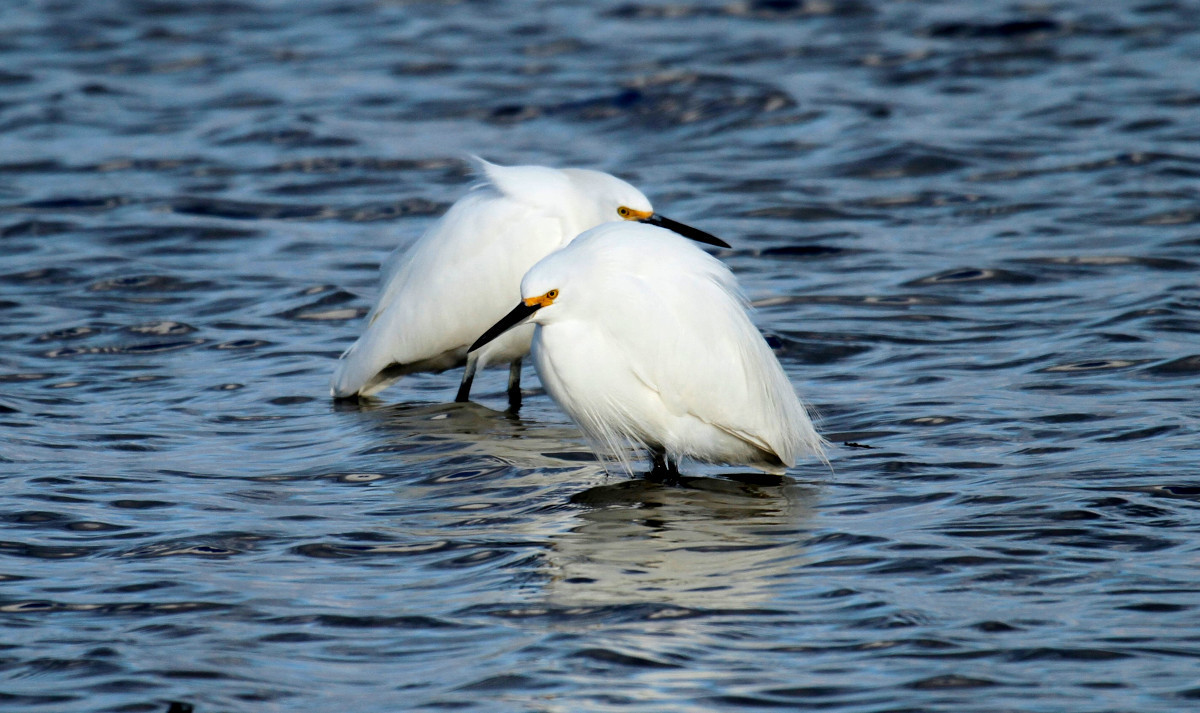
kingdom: Animalia
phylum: Chordata
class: Aves
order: Pelecaniformes
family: Ardeidae
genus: Egretta
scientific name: Egretta thula
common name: Snowy egret
